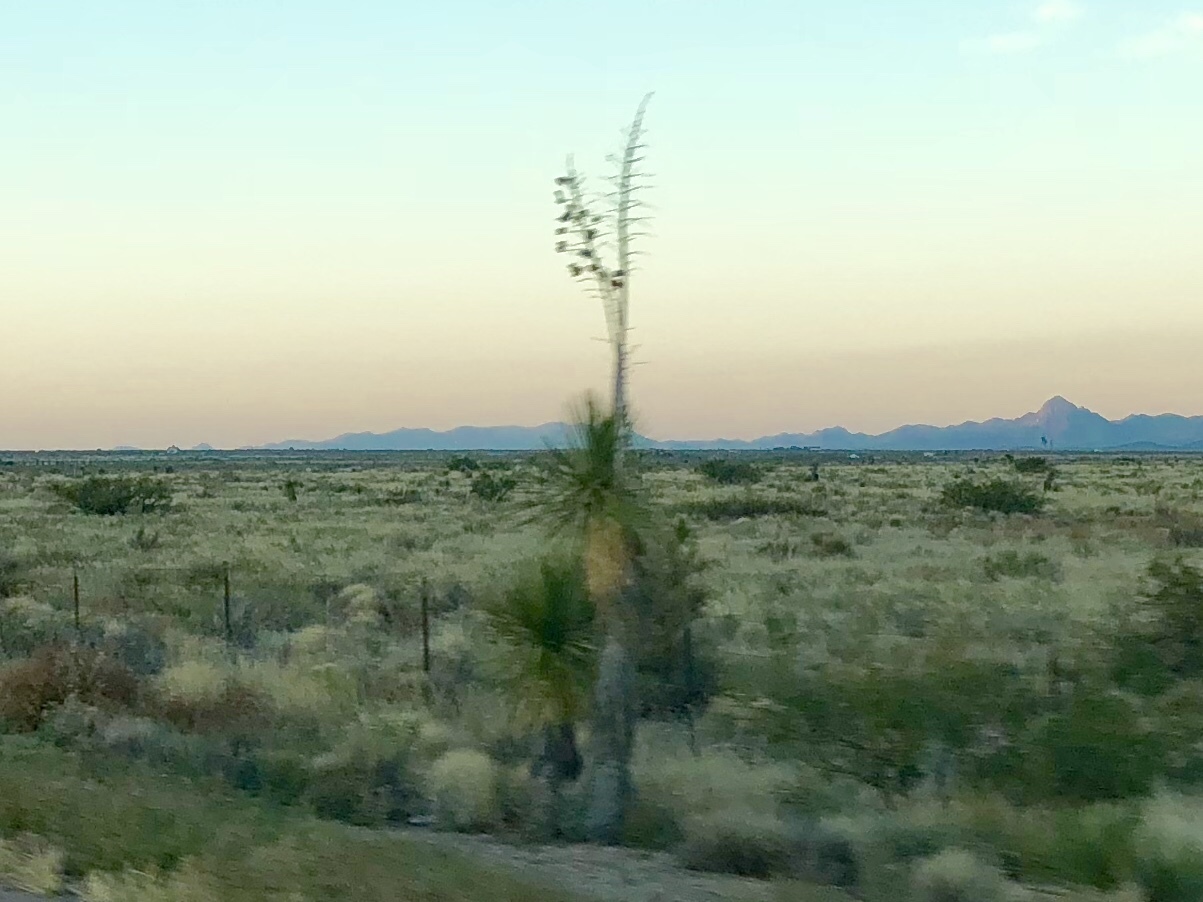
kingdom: Plantae
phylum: Tracheophyta
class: Liliopsida
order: Asparagales
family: Asparagaceae
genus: Yucca
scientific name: Yucca elata
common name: Palmella
